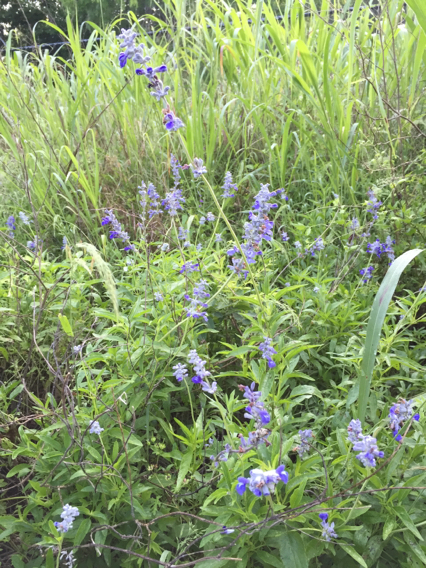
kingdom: Plantae
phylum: Tracheophyta
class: Magnoliopsida
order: Lamiales
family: Lamiaceae
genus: Salvia
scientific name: Salvia farinacea
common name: Mealy sage
